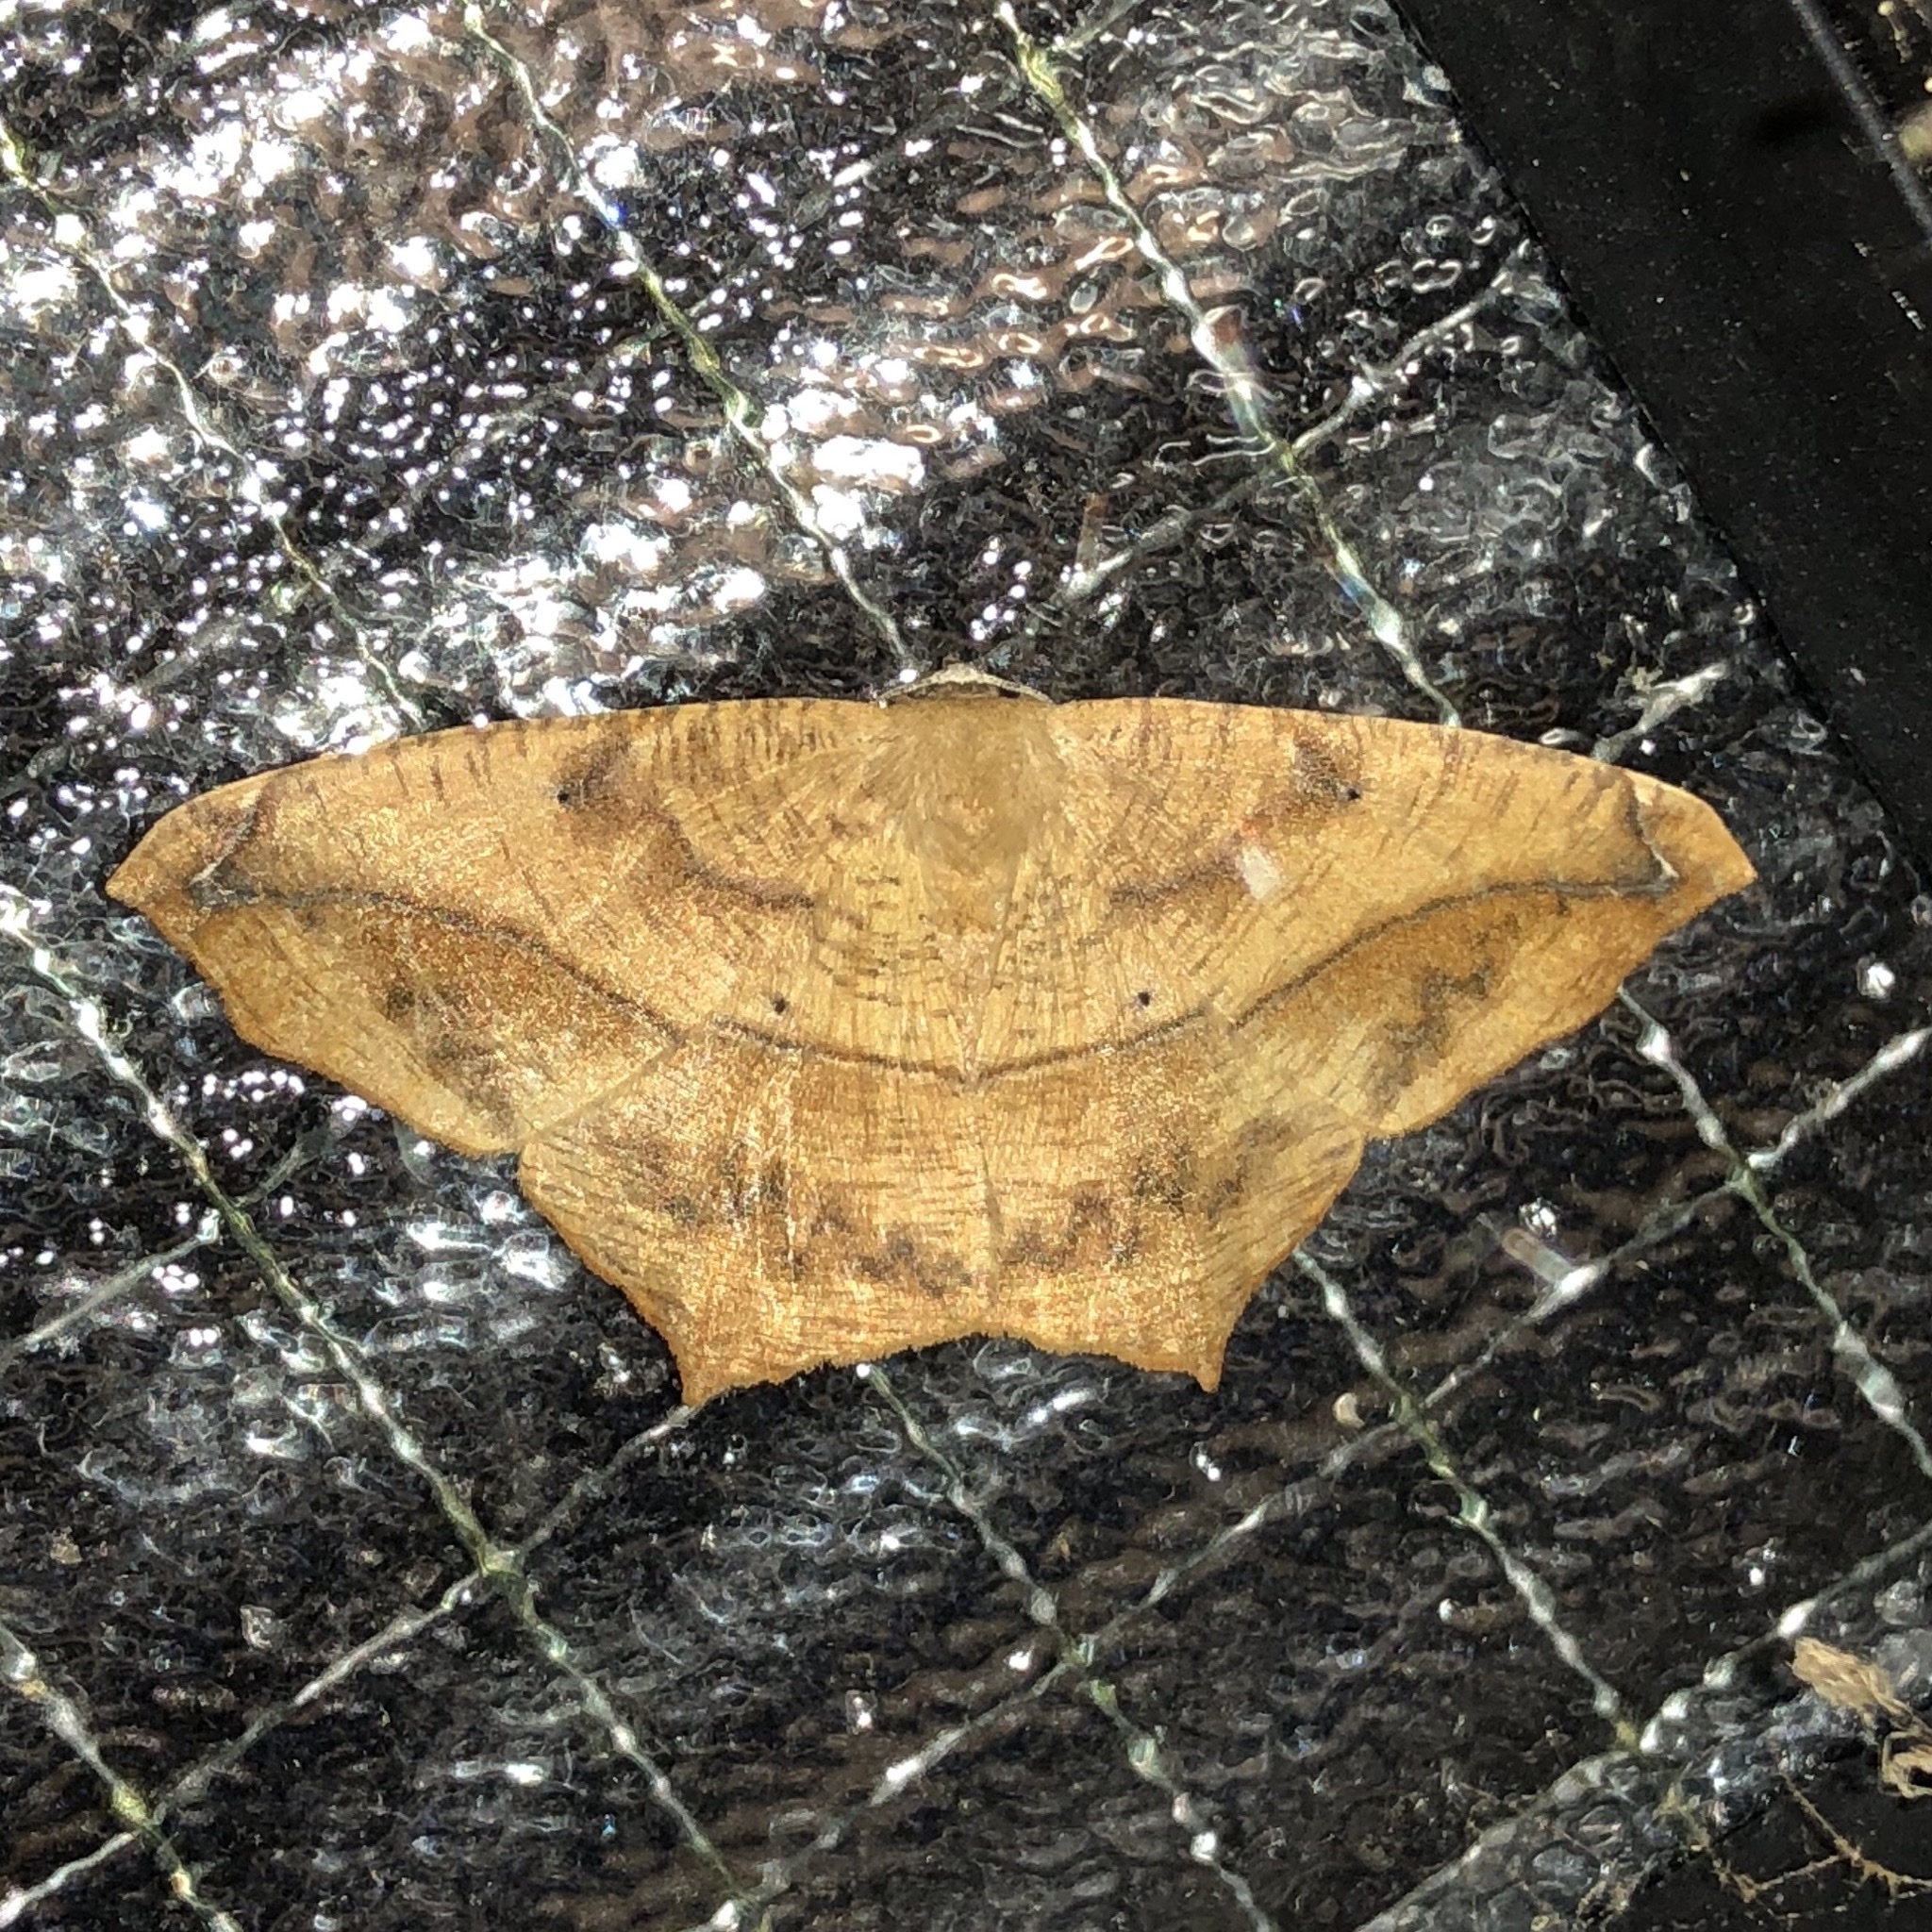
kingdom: Animalia
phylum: Arthropoda
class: Insecta
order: Lepidoptera
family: Geometridae
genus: Prochoerodes
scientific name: Prochoerodes lineola
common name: Large maple spanworm
